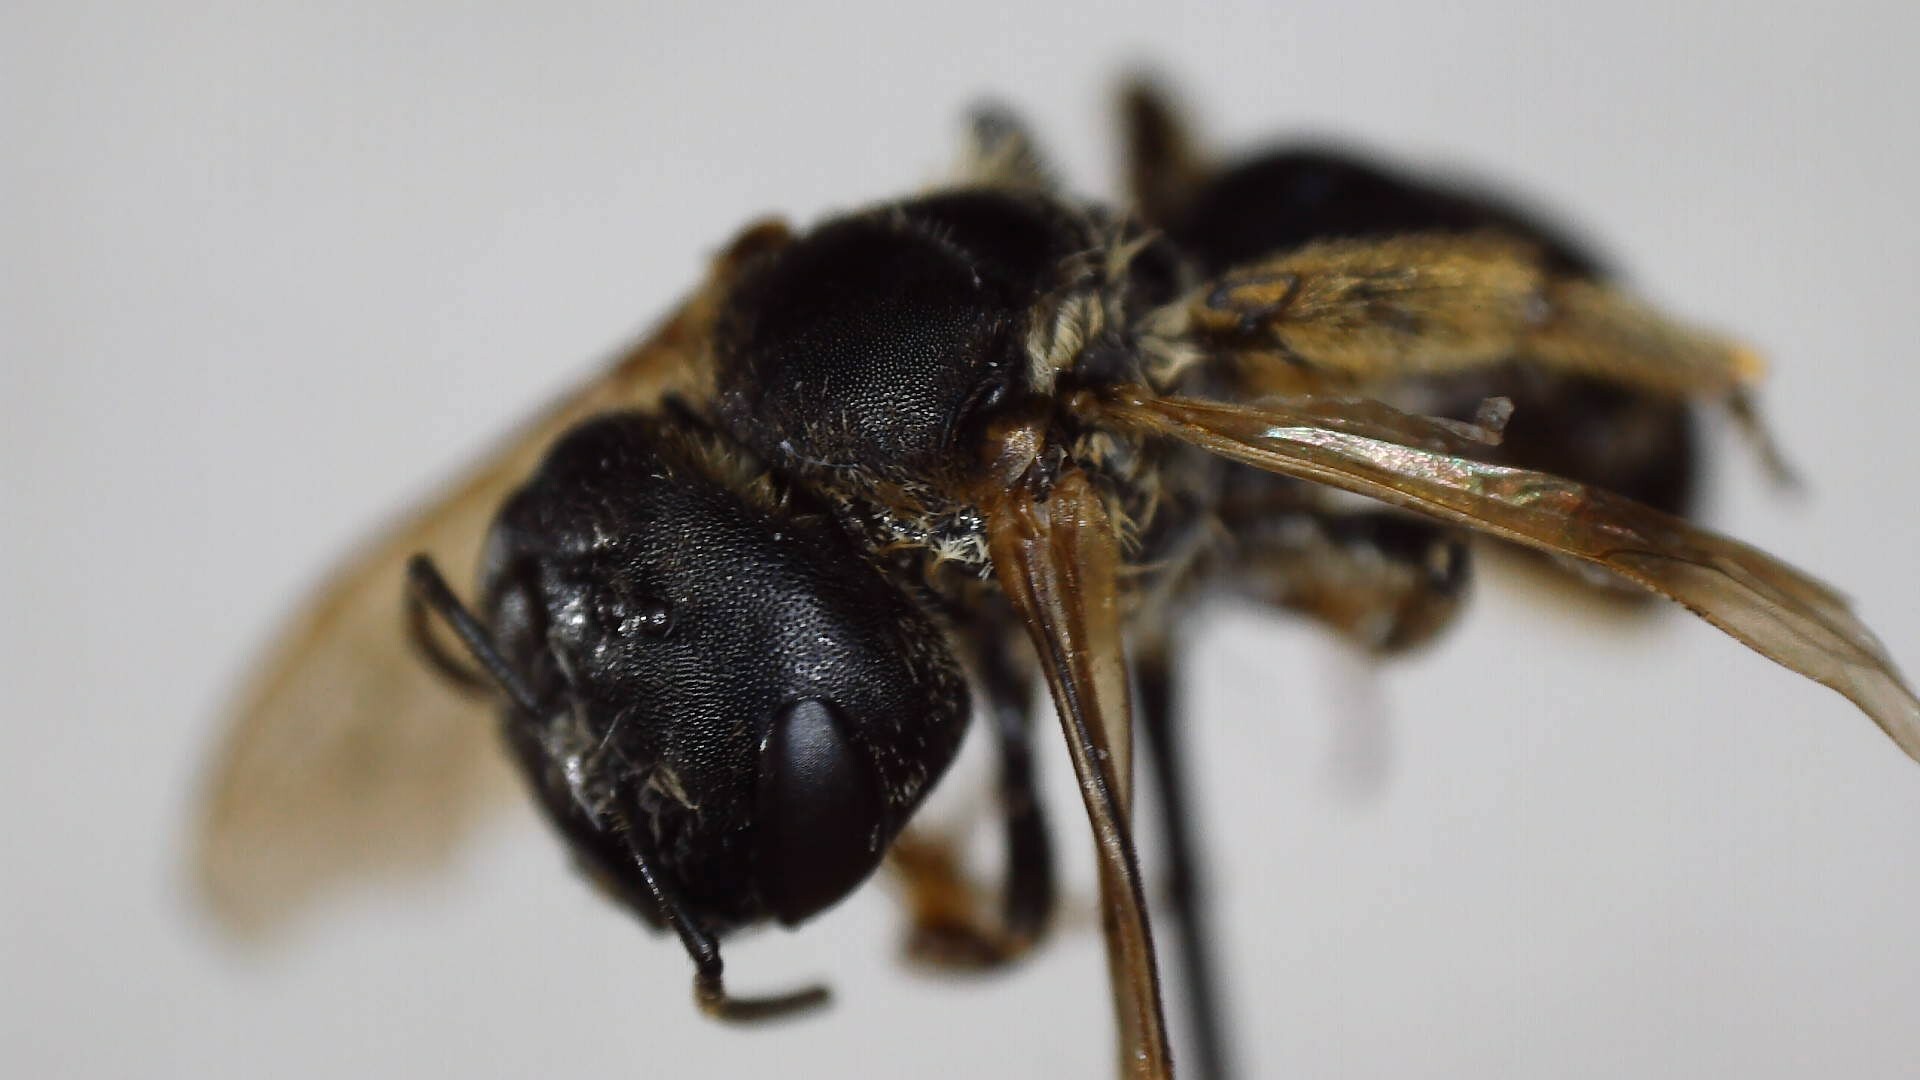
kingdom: Animalia
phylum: Arthropoda
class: Insecta
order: Hymenoptera
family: Halictidae
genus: Halictus
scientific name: Halictus ligatus
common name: Ligated furrow bee
